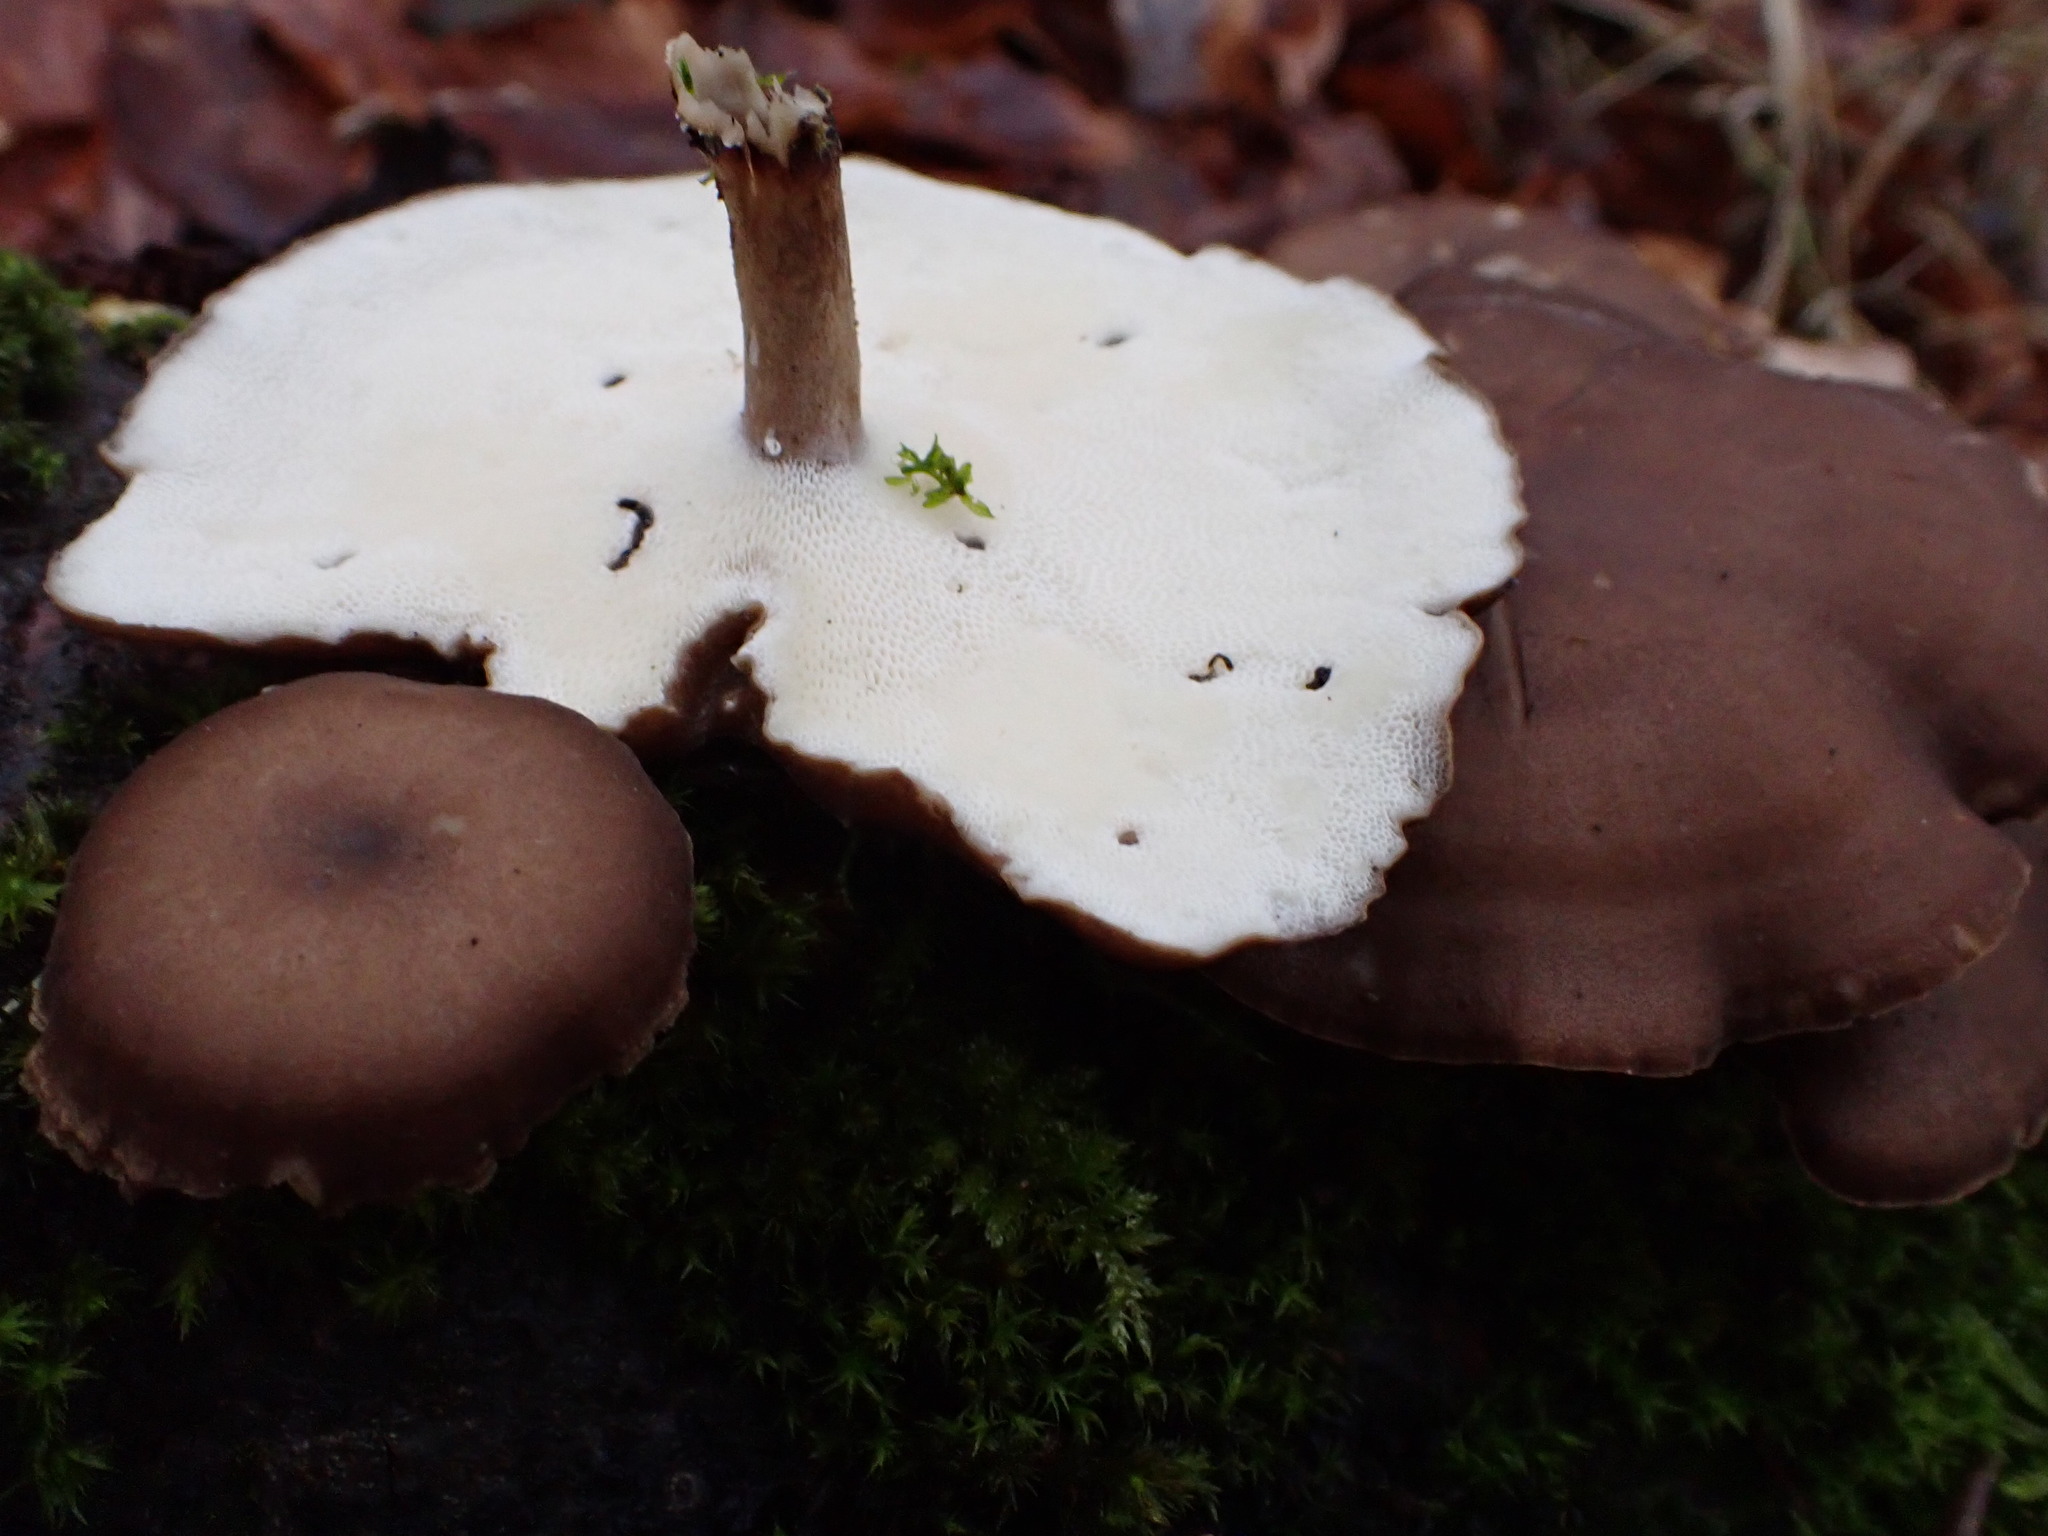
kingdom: Fungi
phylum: Basidiomycota
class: Agaricomycetes
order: Polyporales
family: Polyporaceae
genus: Lentinus
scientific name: Lentinus brumalis
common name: Winter polypore
